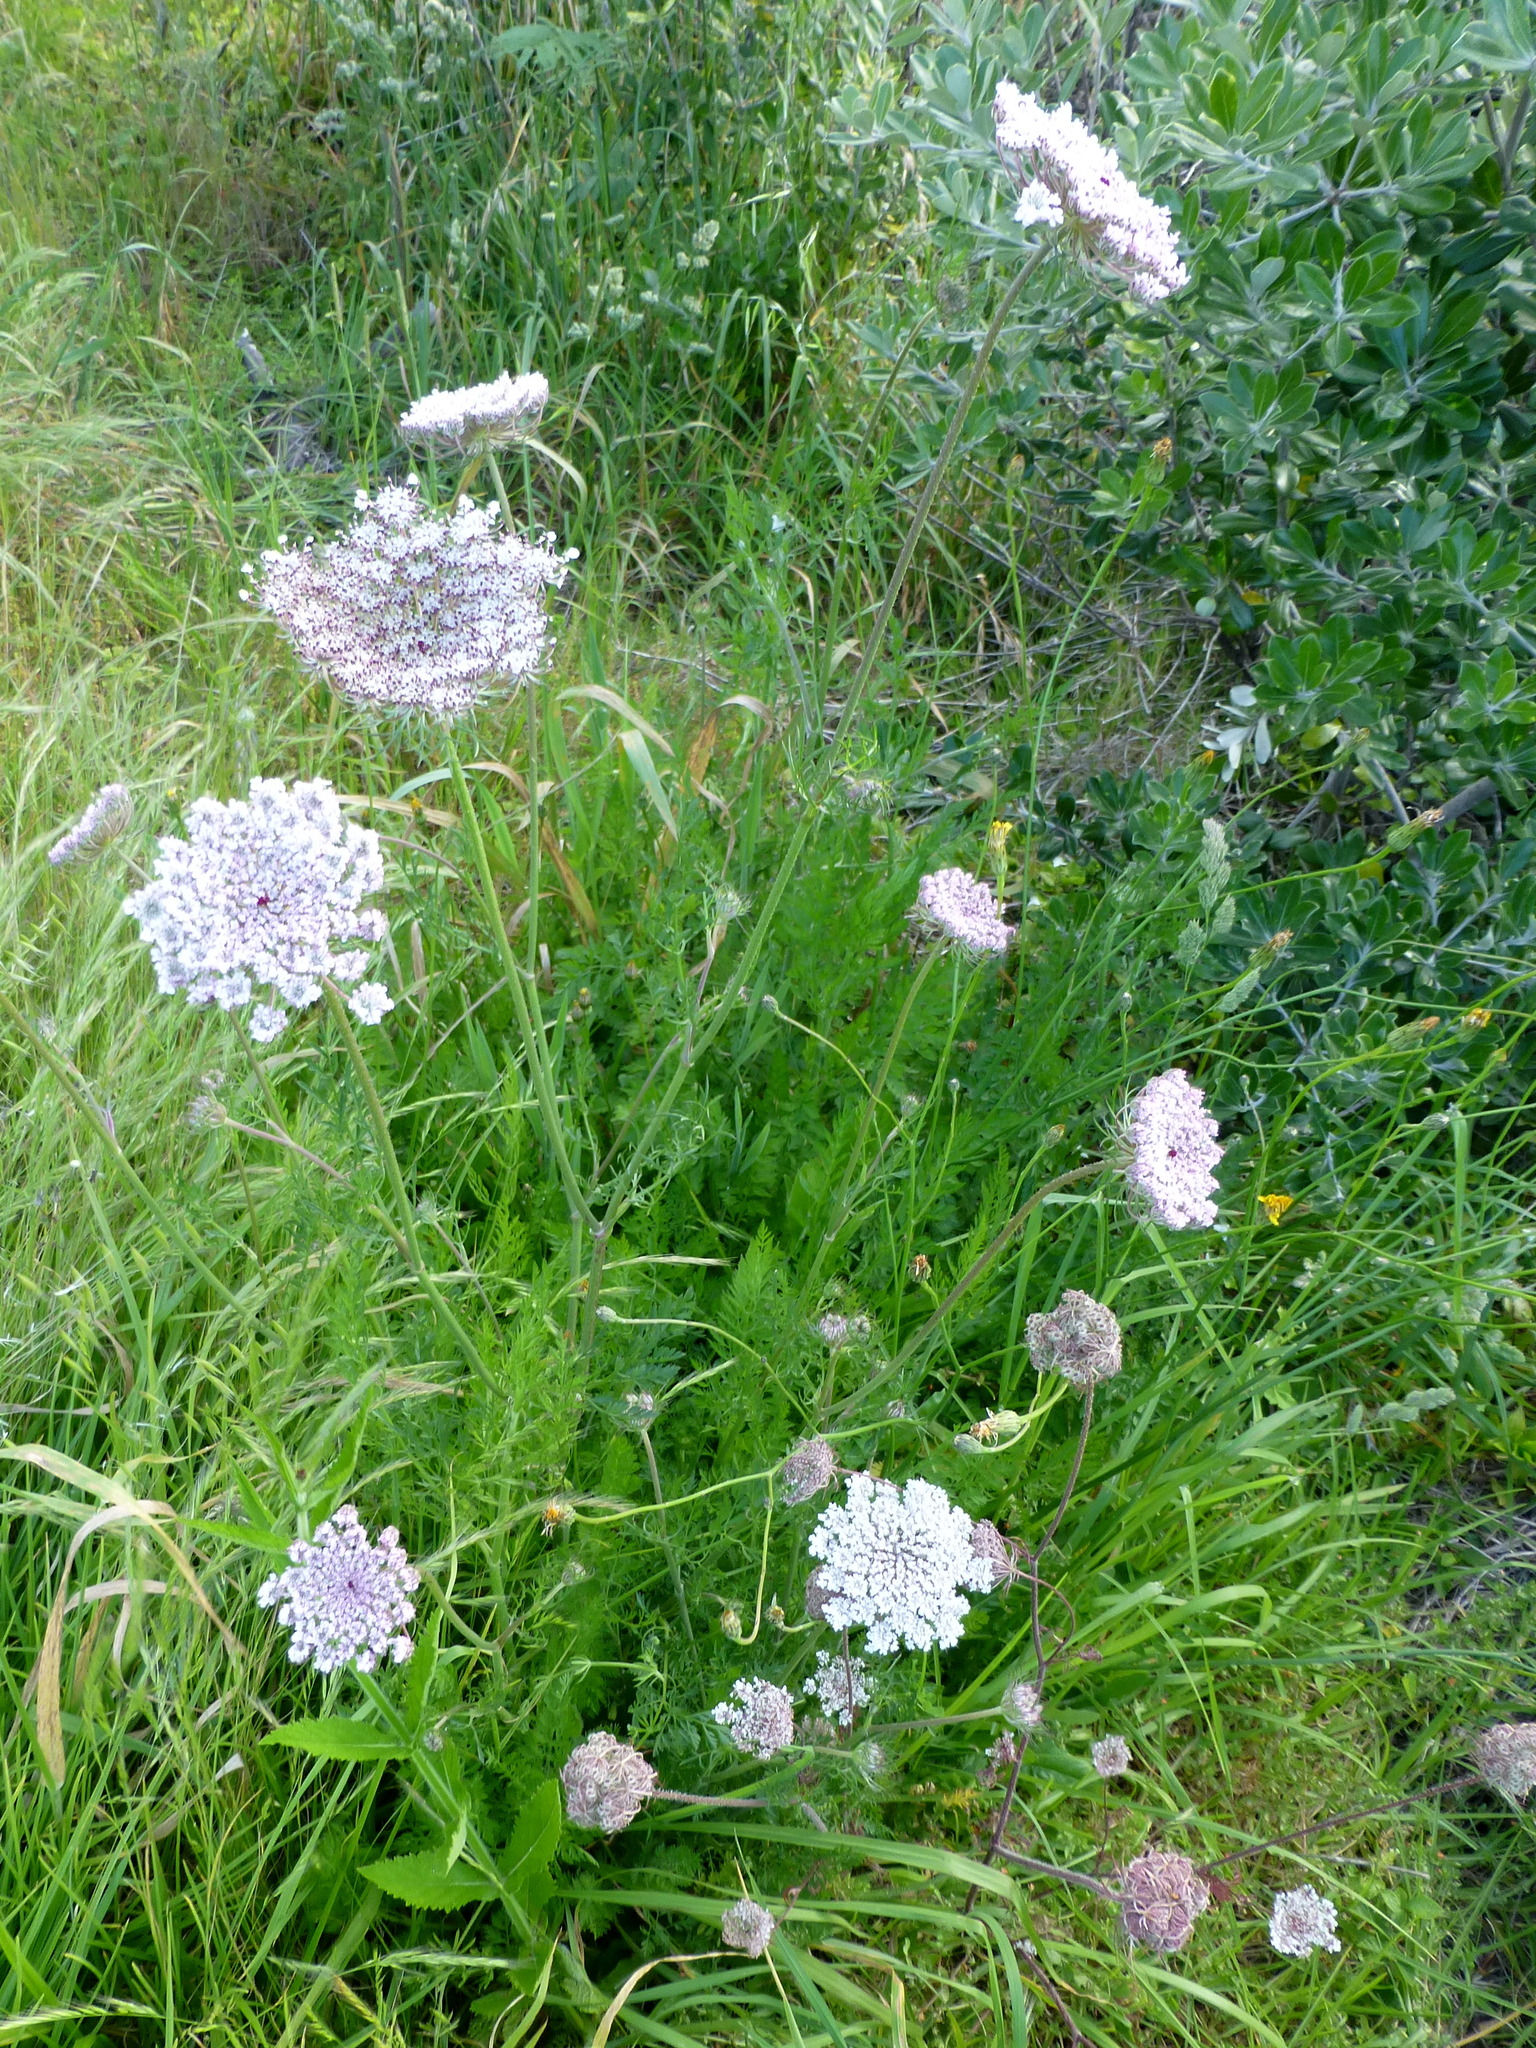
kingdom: Plantae
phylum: Tracheophyta
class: Magnoliopsida
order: Apiales
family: Apiaceae
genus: Daucus
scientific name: Daucus carota
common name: Wild carrot
